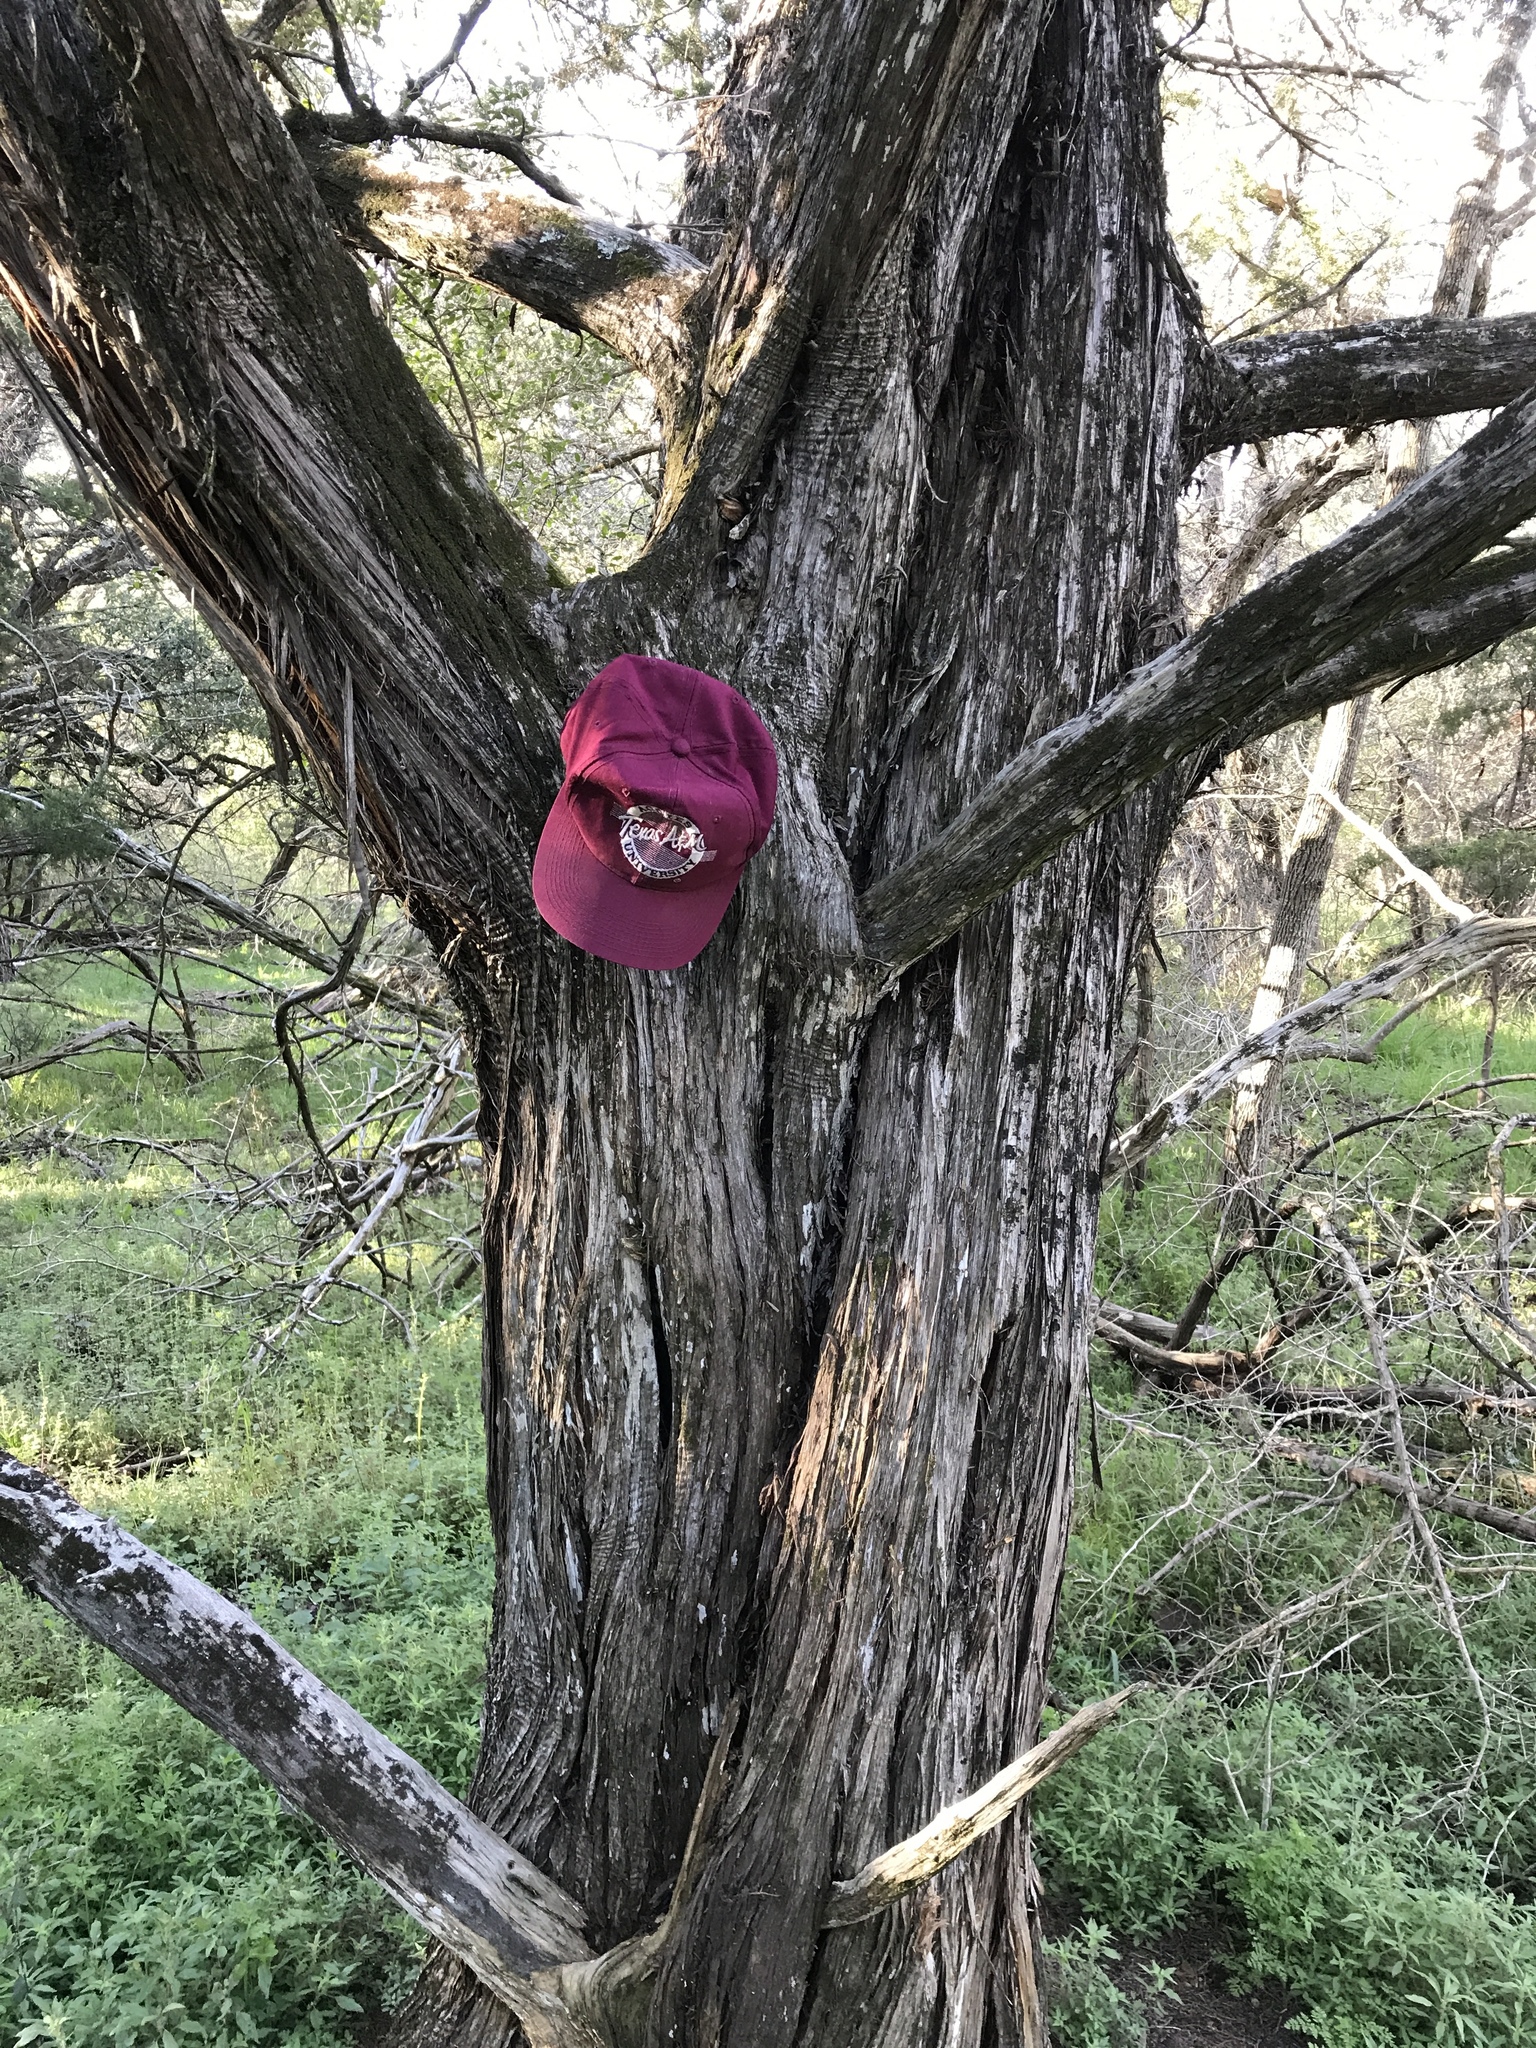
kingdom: Plantae
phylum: Tracheophyta
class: Pinopsida
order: Pinales
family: Cupressaceae
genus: Juniperus
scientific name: Juniperus ashei
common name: Mexican juniper
